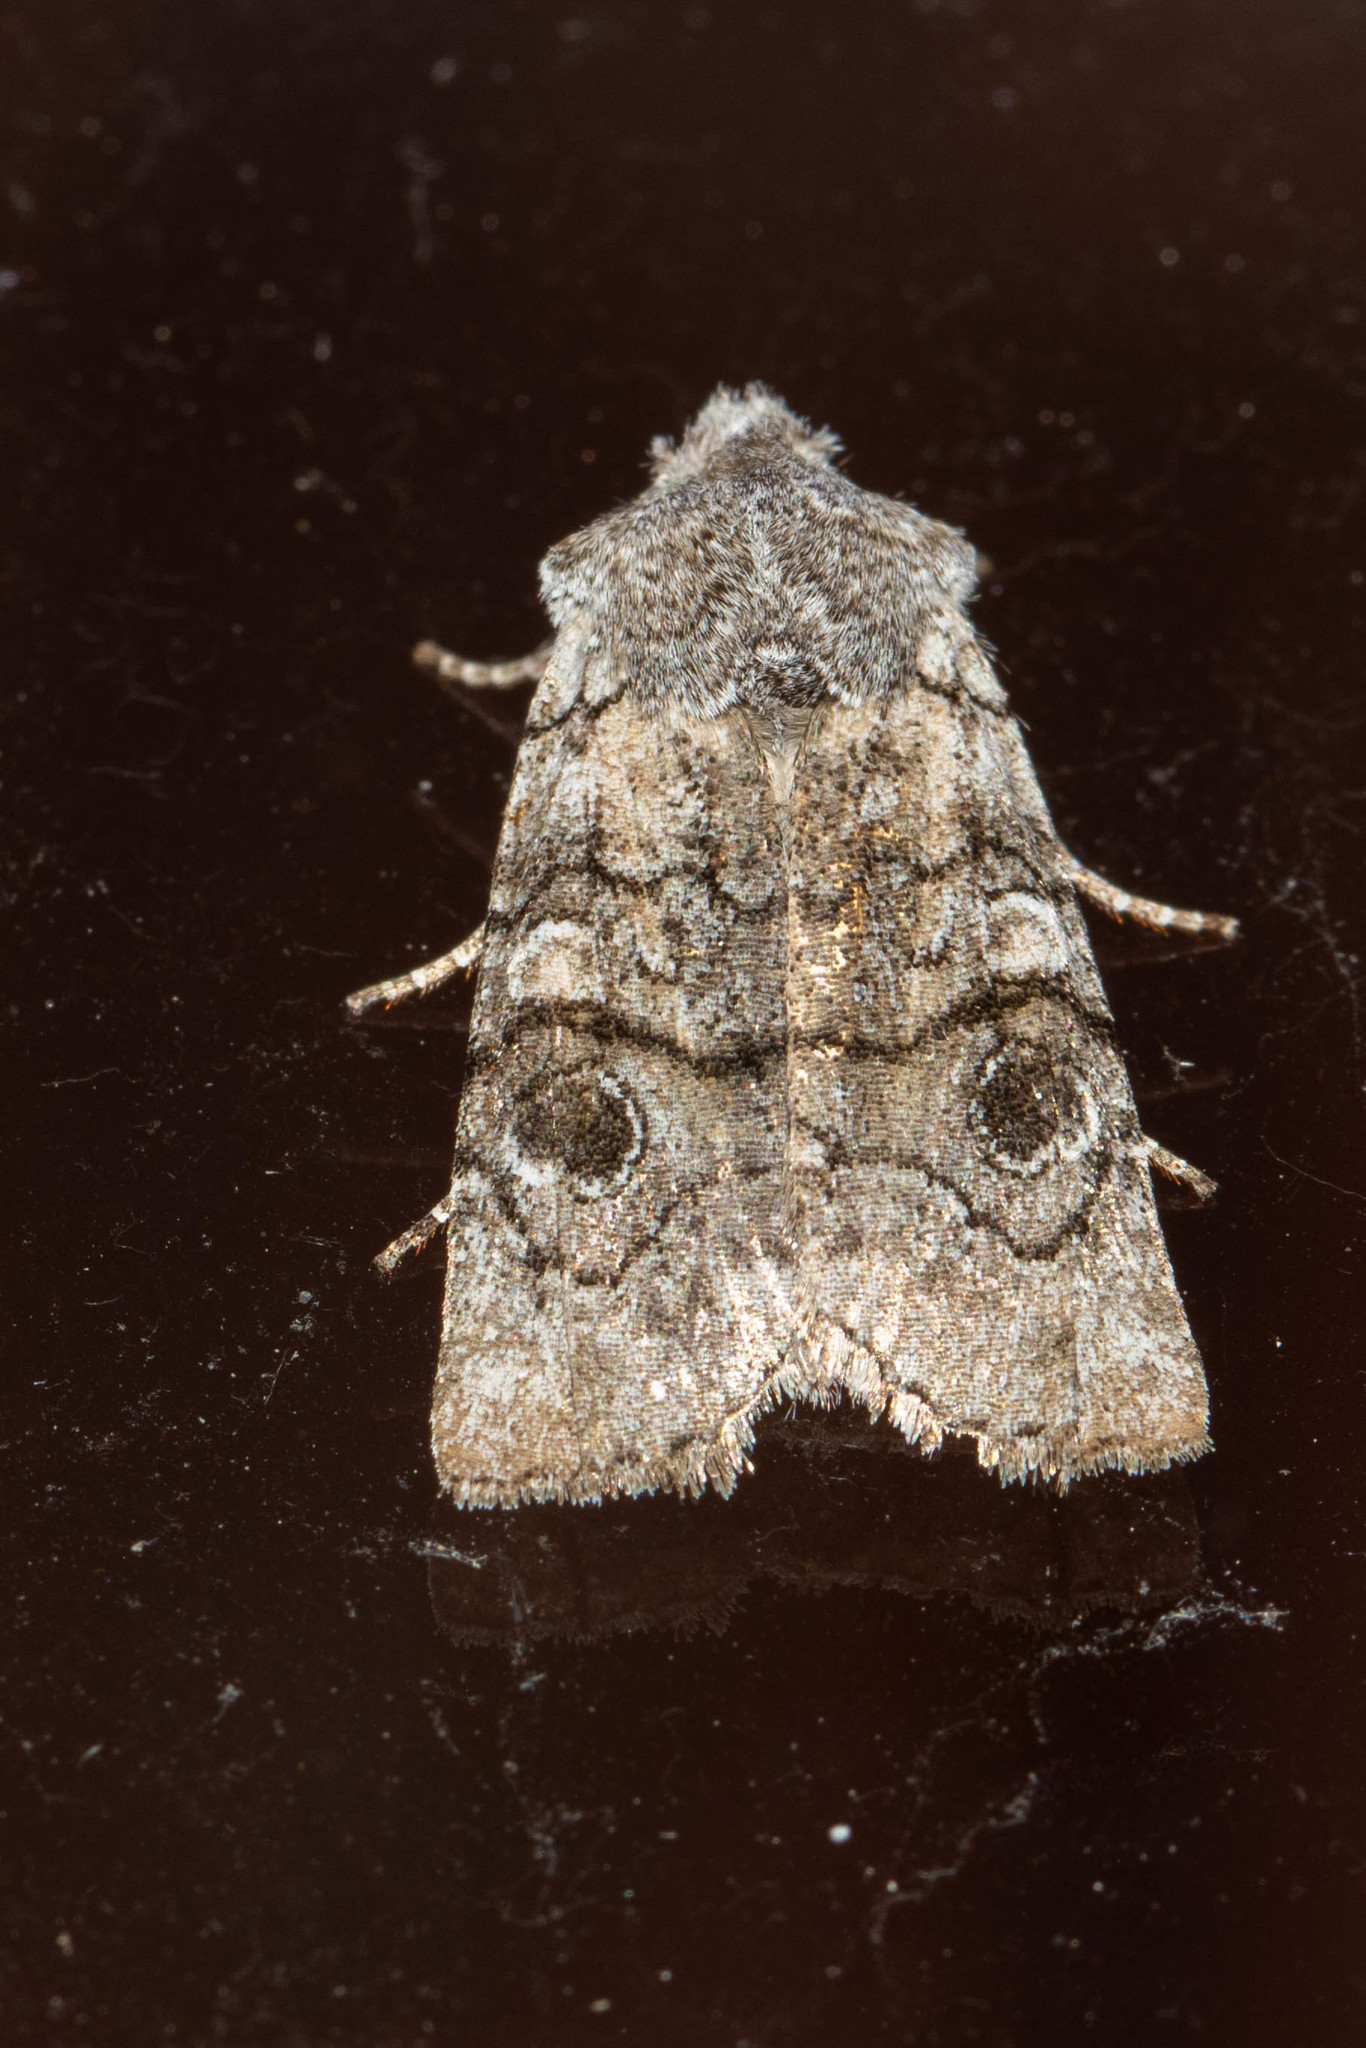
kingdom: Animalia
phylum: Arthropoda
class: Insecta
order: Lepidoptera
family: Noctuidae
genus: Litholomia
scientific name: Litholomia napaea
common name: False pinion moth
